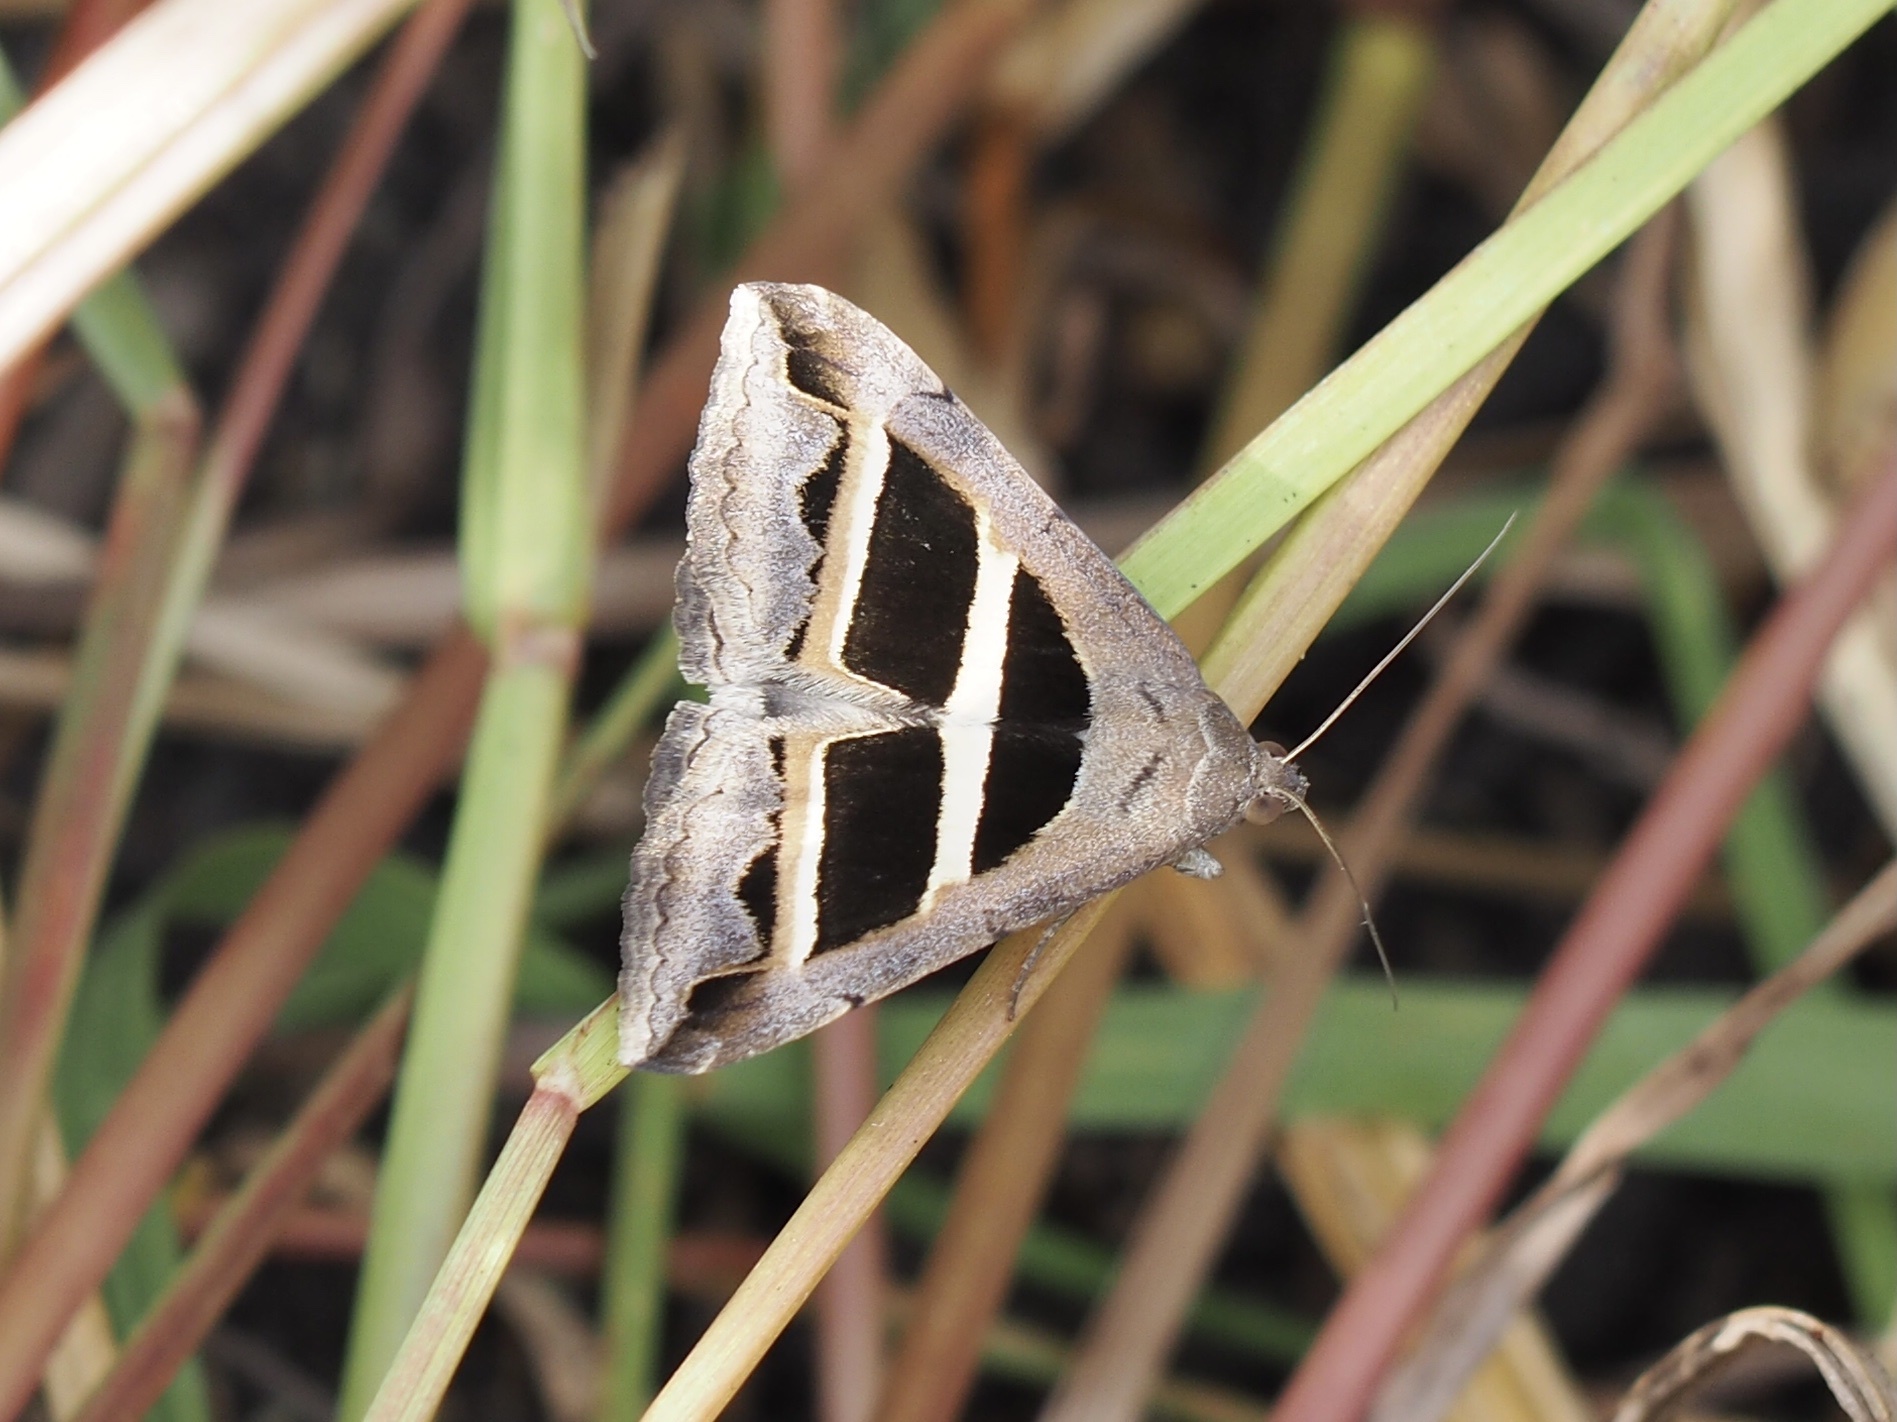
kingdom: Animalia
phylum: Arthropoda
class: Insecta
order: Lepidoptera
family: Erebidae
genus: Grammodes
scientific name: Grammodes geometrica
